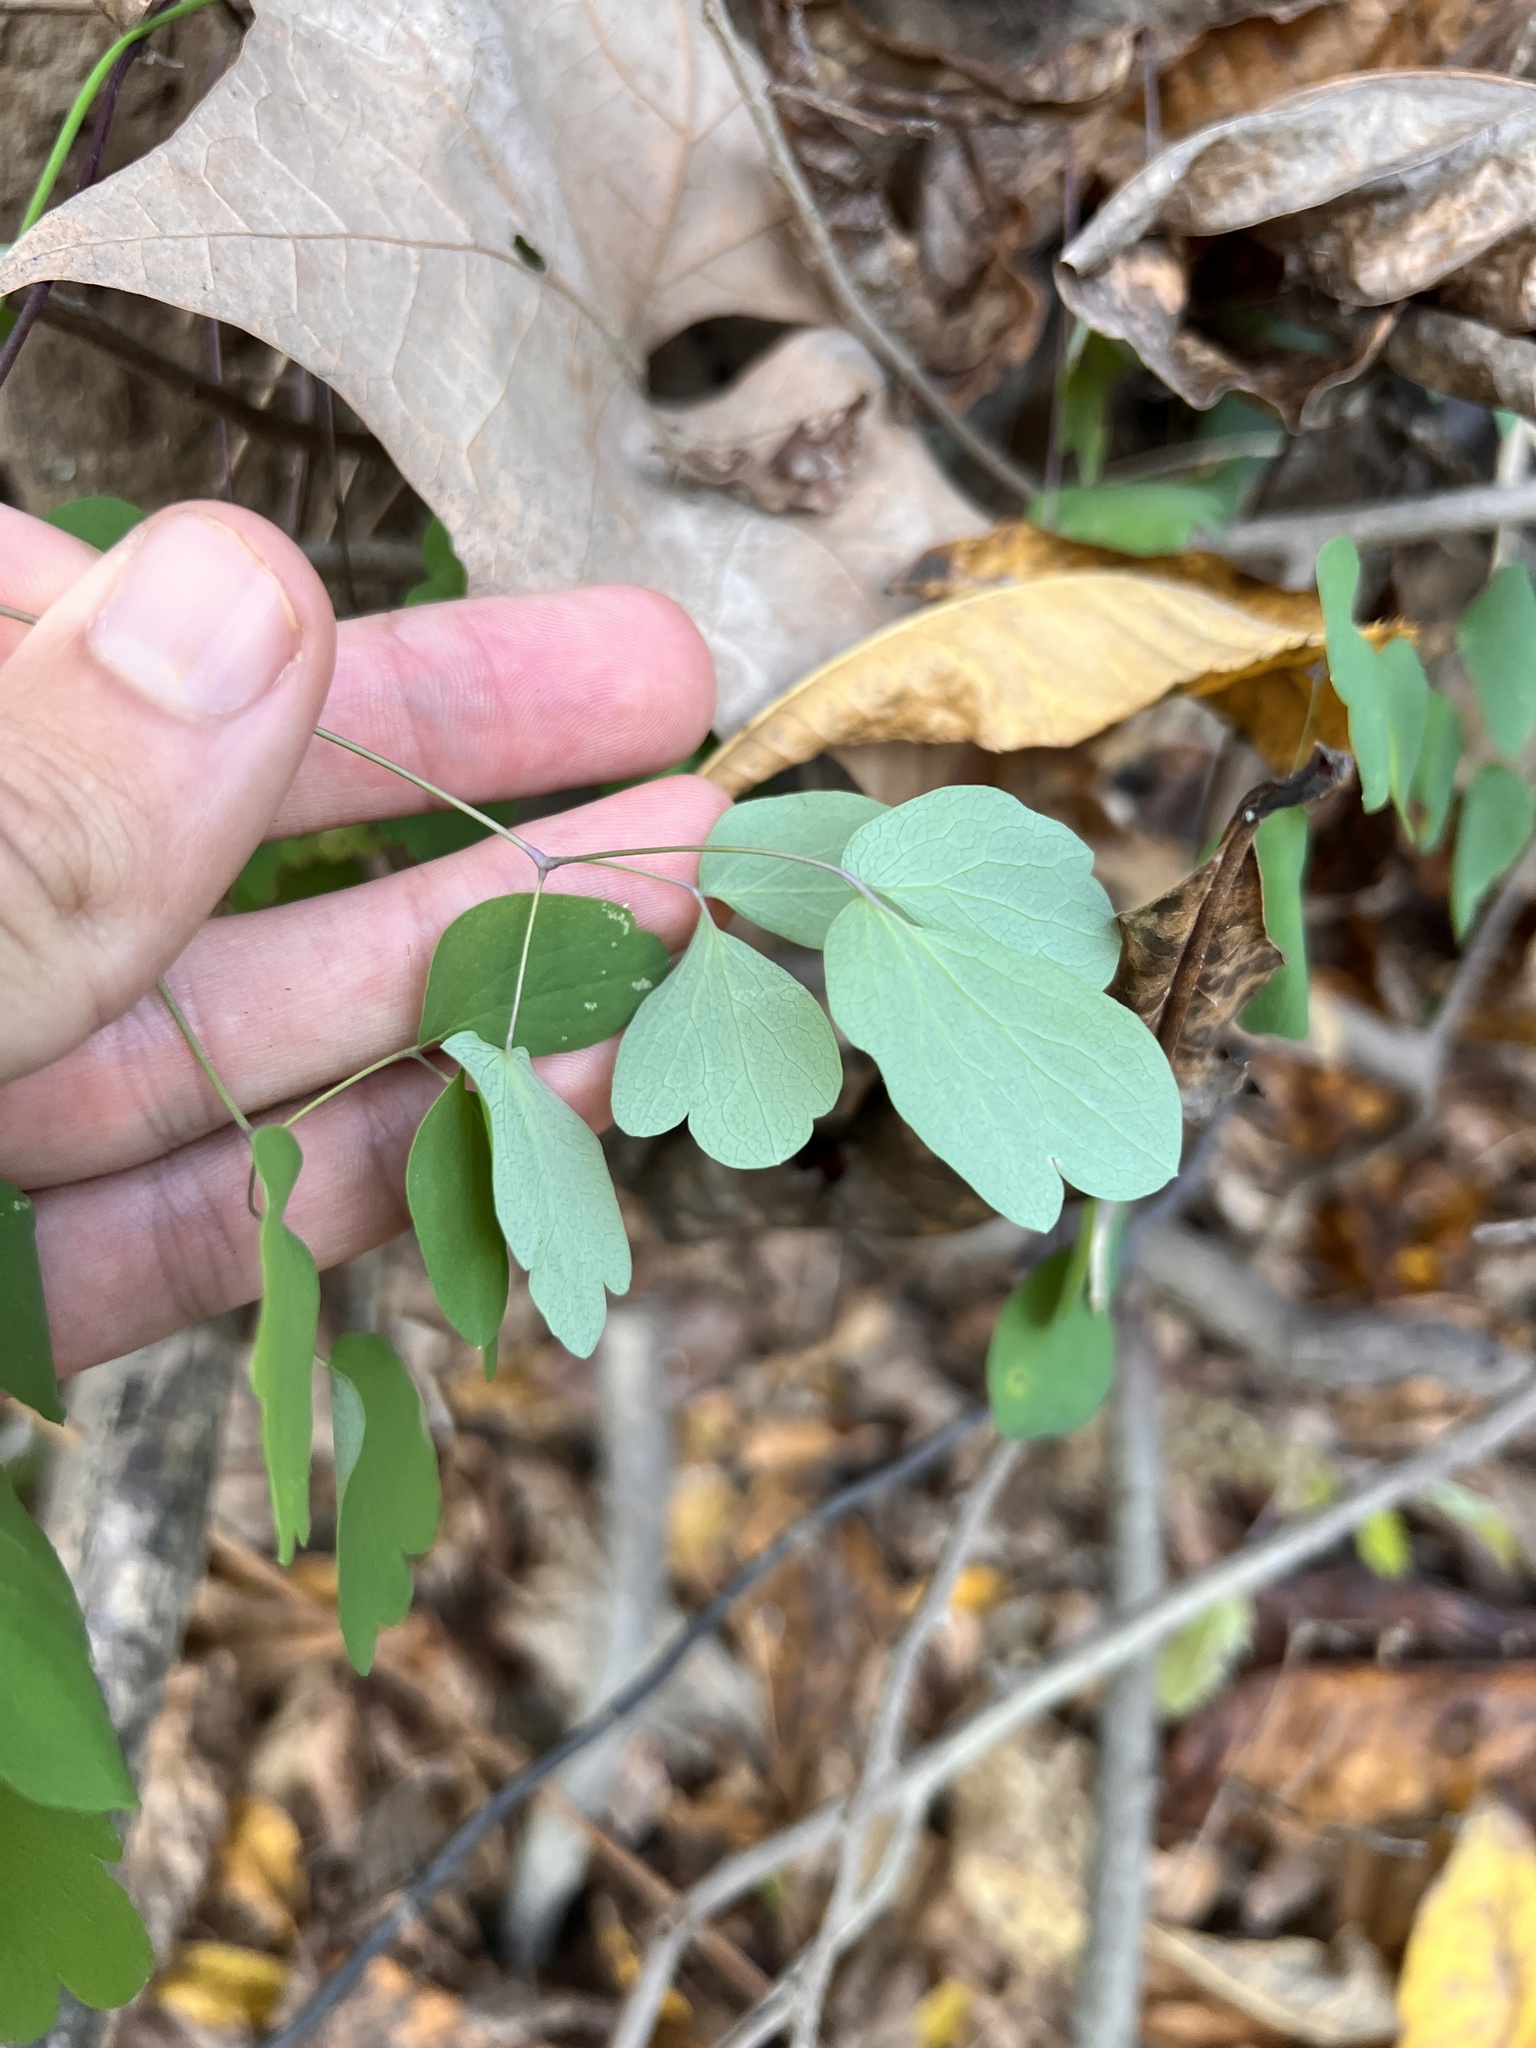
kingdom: Plantae
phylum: Tracheophyta
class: Magnoliopsida
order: Ranunculales
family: Ranunculaceae
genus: Thalictrum
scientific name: Thalictrum thalictroides
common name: Rue-anemone
